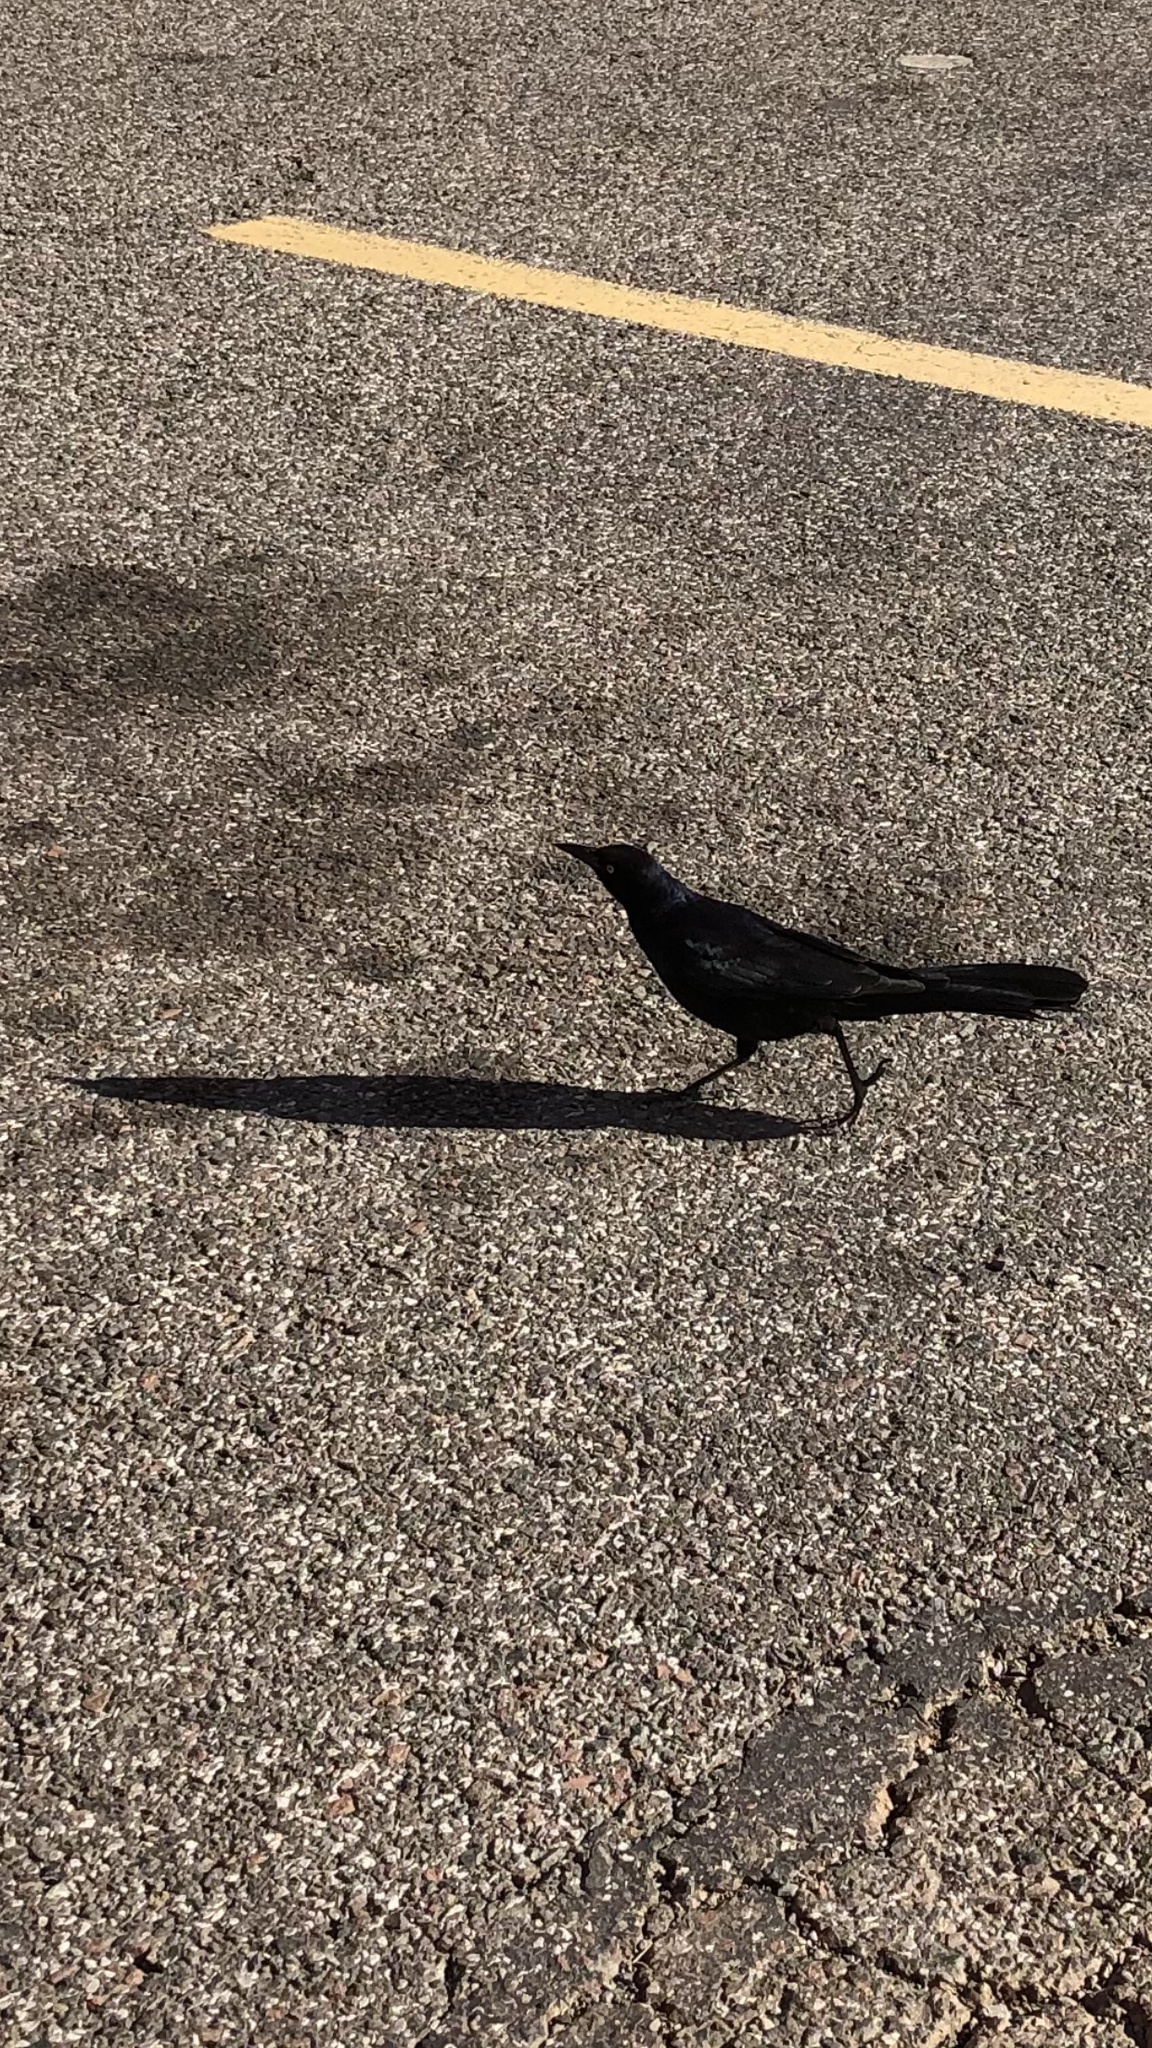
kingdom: Animalia
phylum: Chordata
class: Aves
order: Passeriformes
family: Icteridae
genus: Quiscalus
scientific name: Quiscalus mexicanus
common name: Great-tailed grackle
